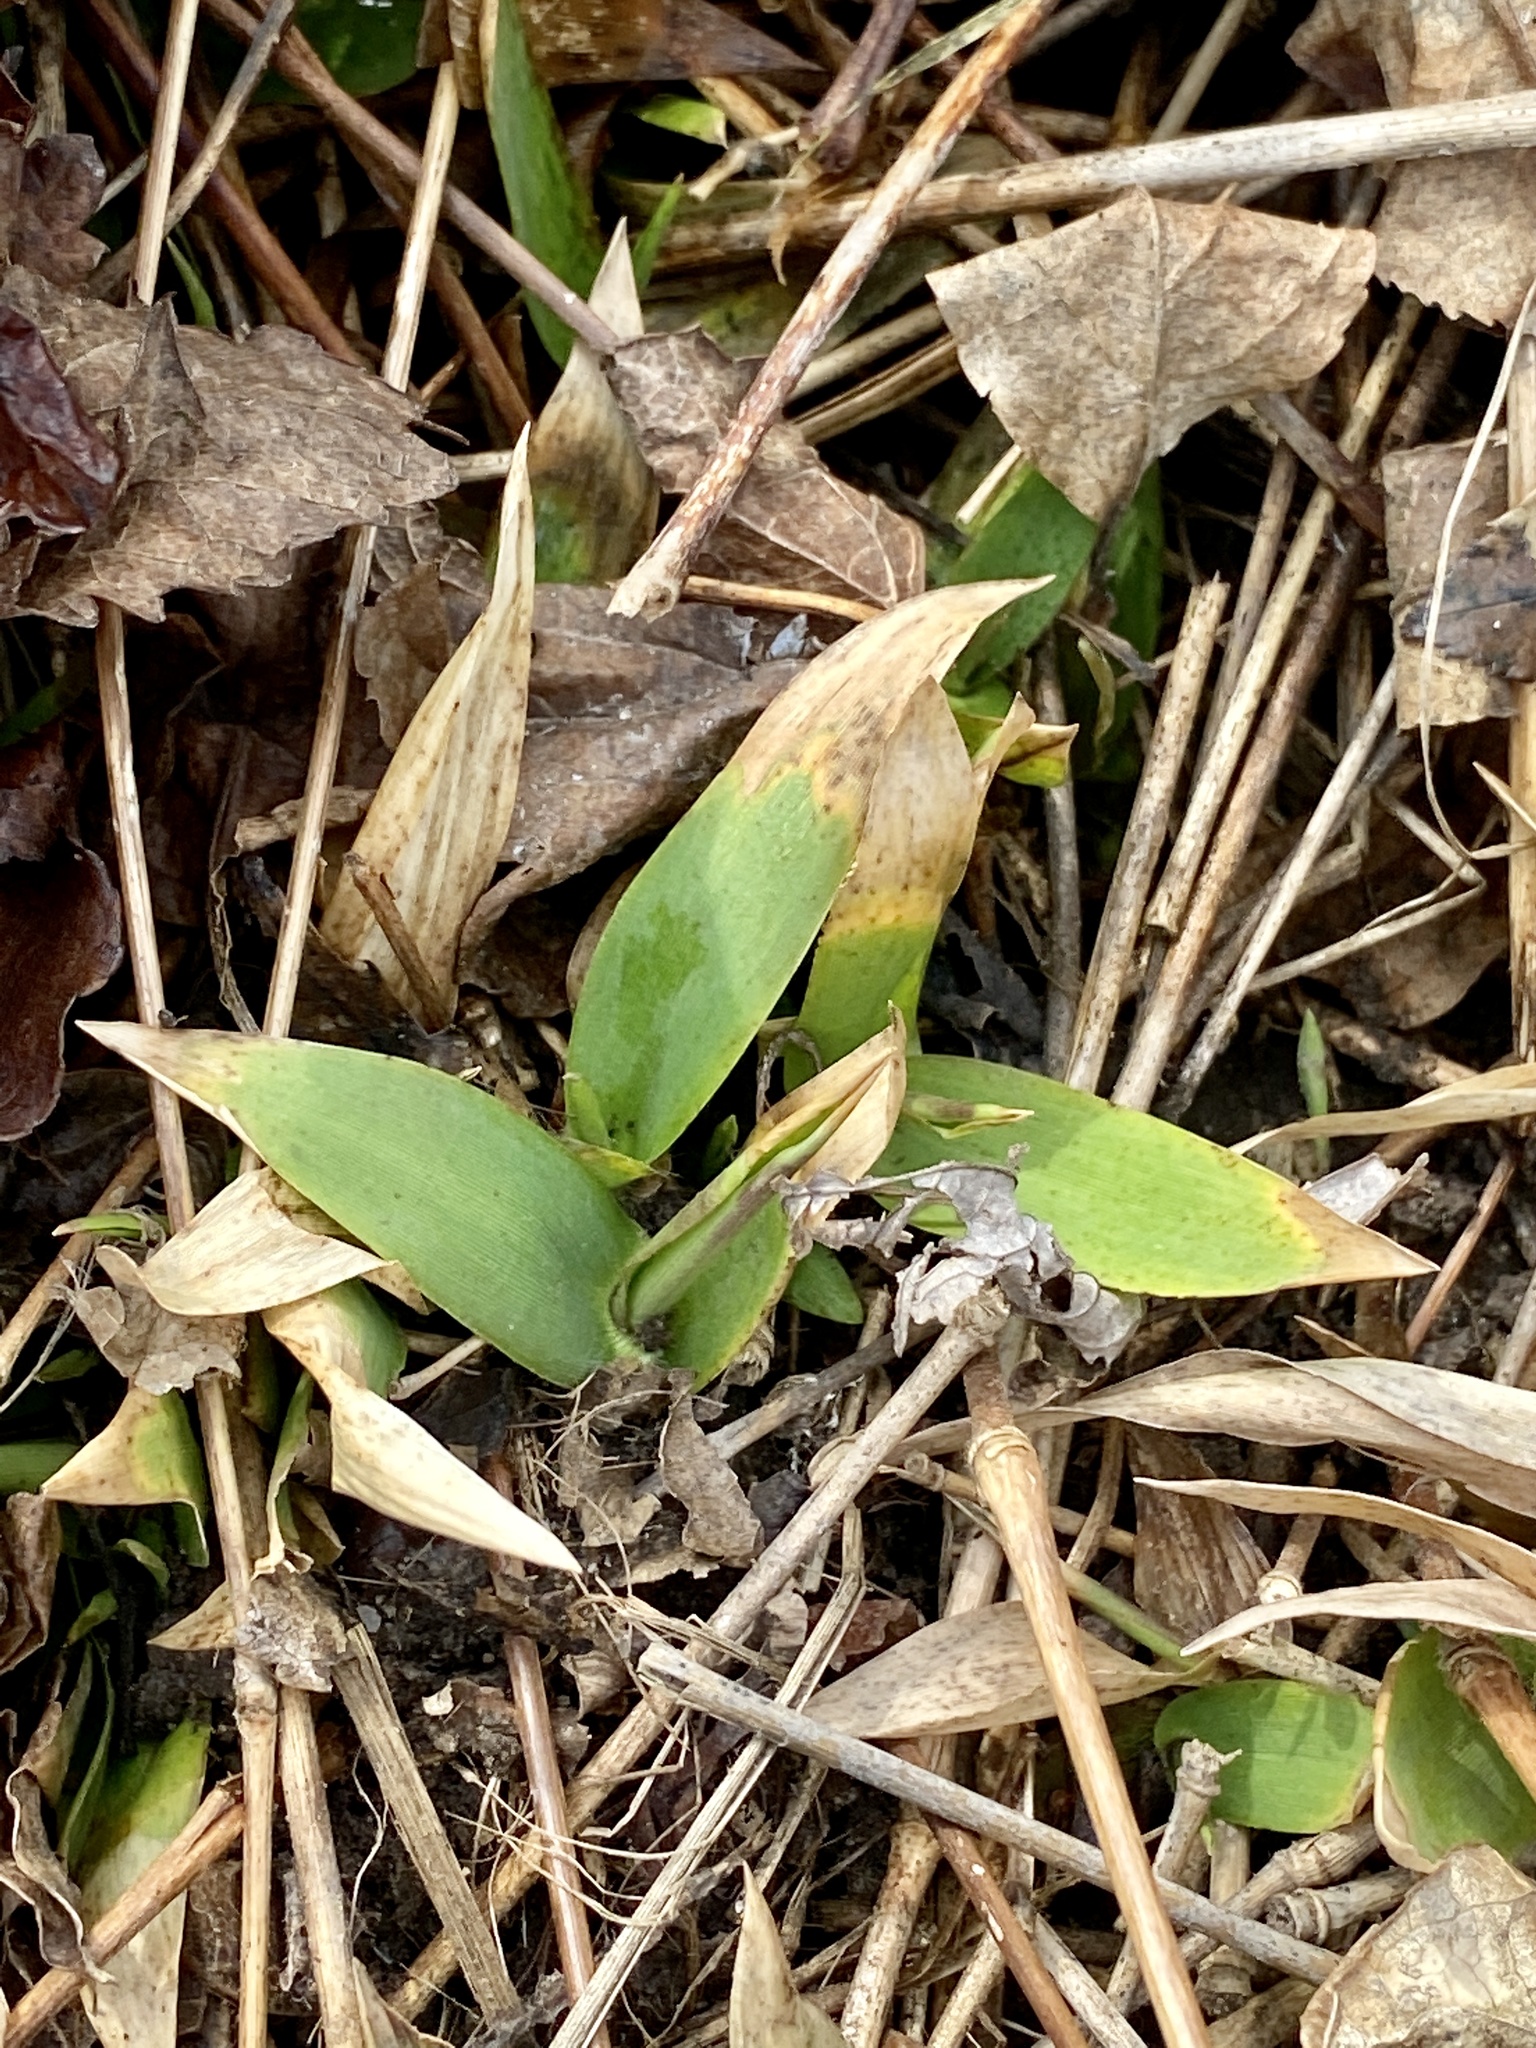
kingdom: Plantae
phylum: Tracheophyta
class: Liliopsida
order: Poales
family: Poaceae
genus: Dichanthelium
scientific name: Dichanthelium clandestinum
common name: Deer-tongue grass
